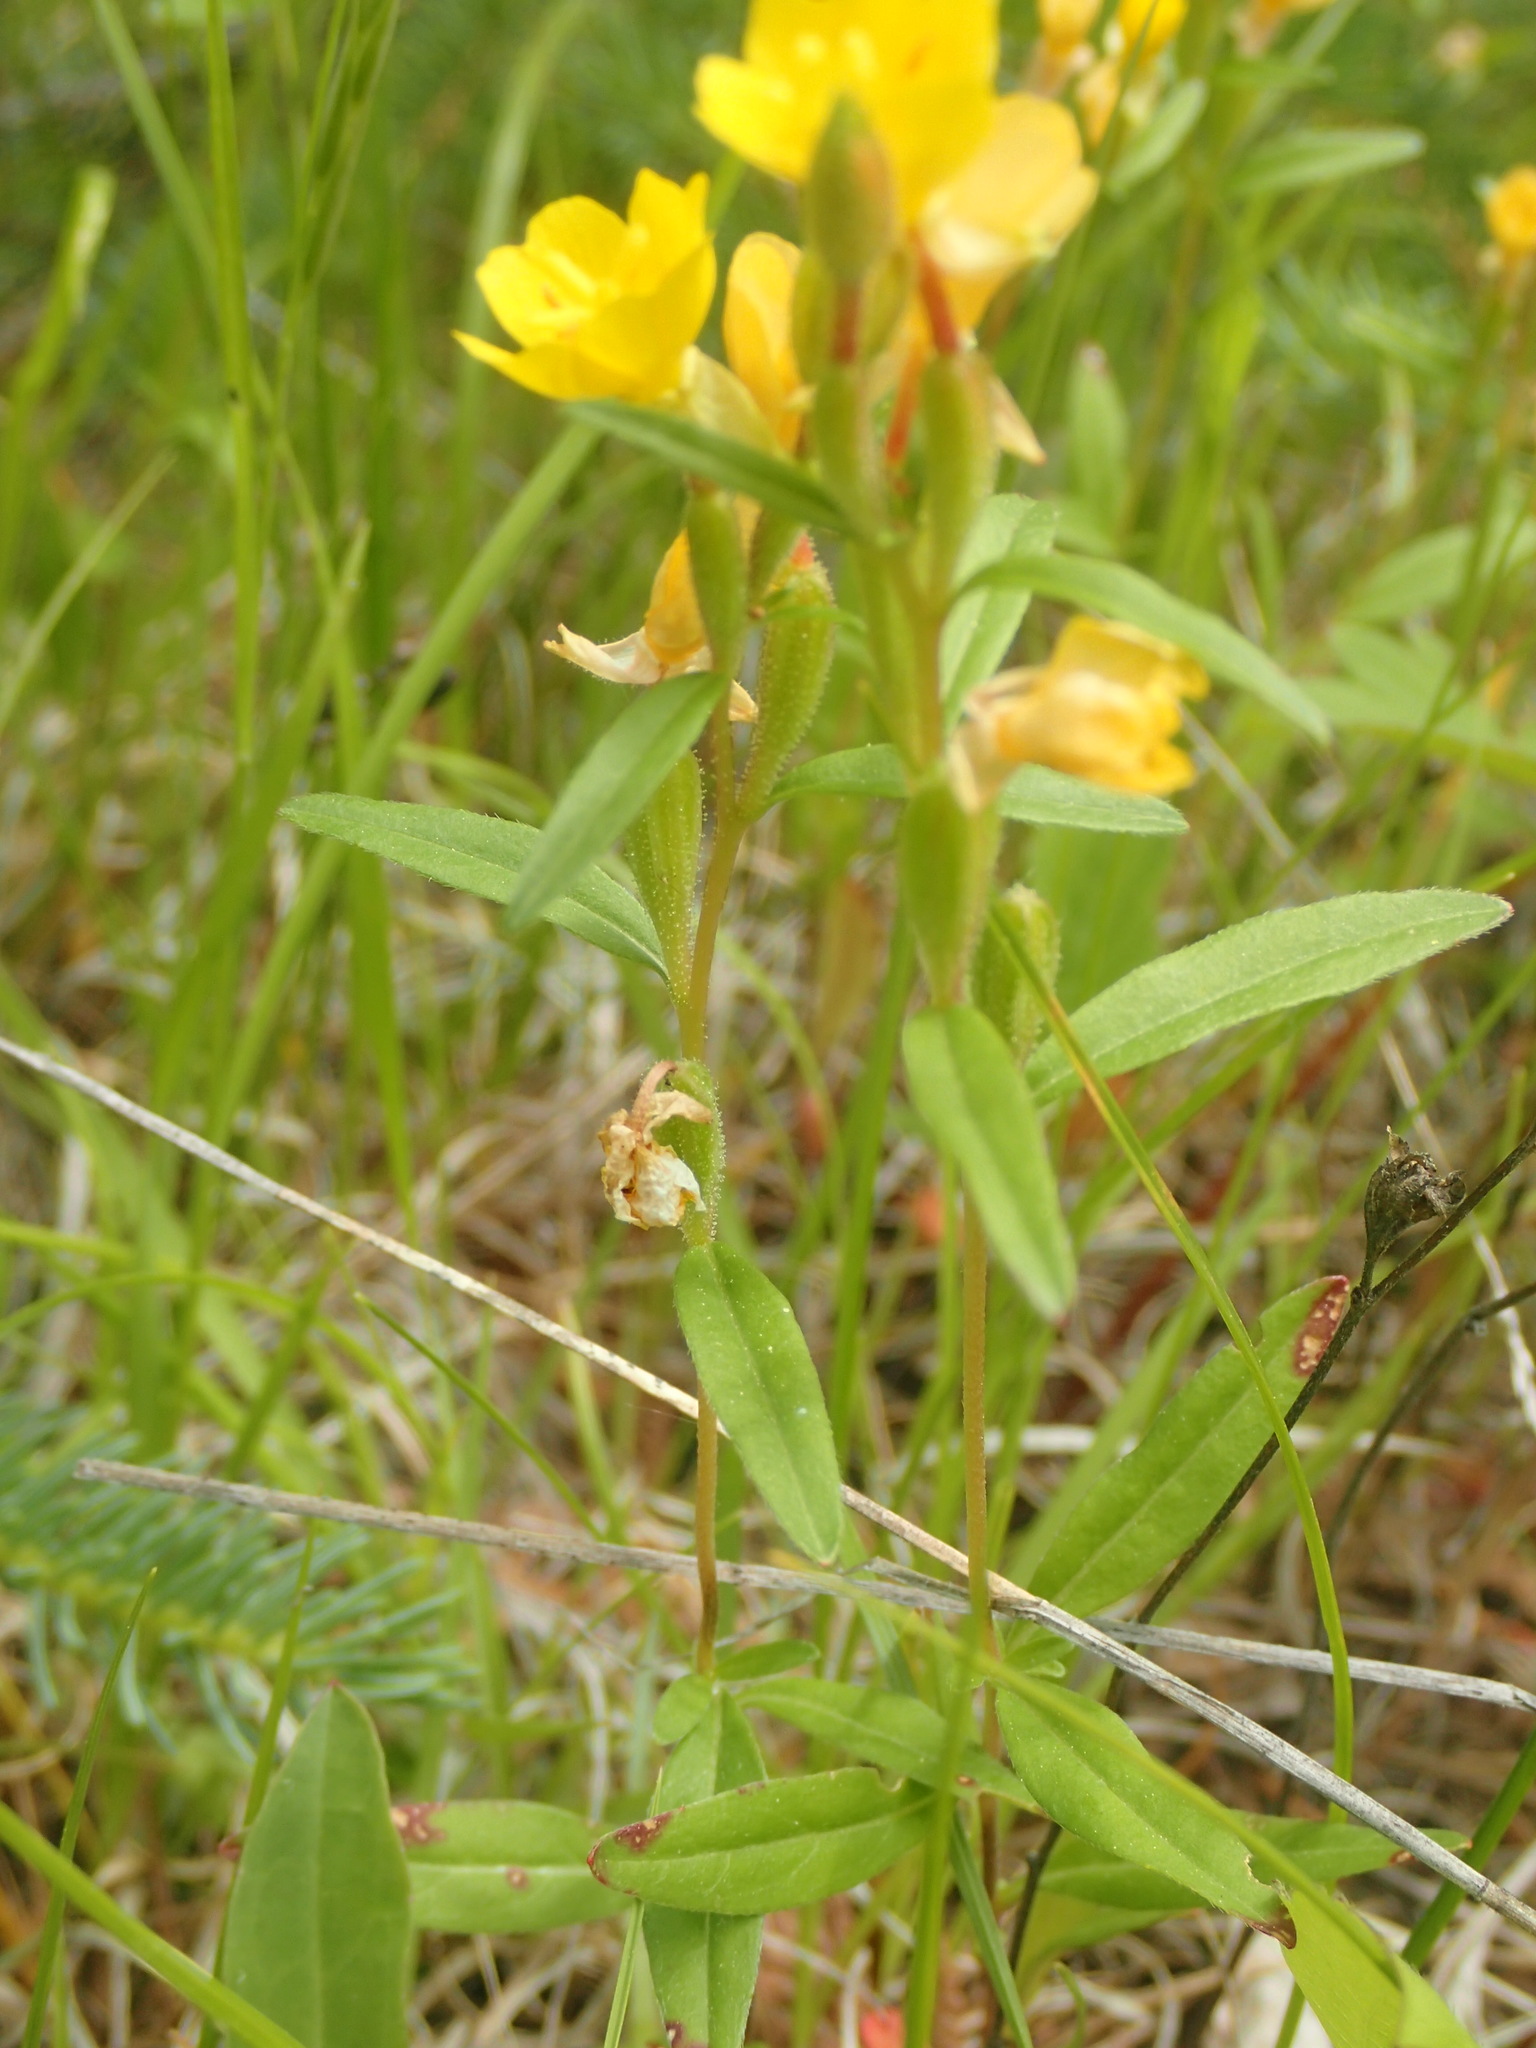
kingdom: Plantae
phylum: Tracheophyta
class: Magnoliopsida
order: Myrtales
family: Onagraceae
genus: Oenothera
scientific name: Oenothera perennis
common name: Small sundrops
